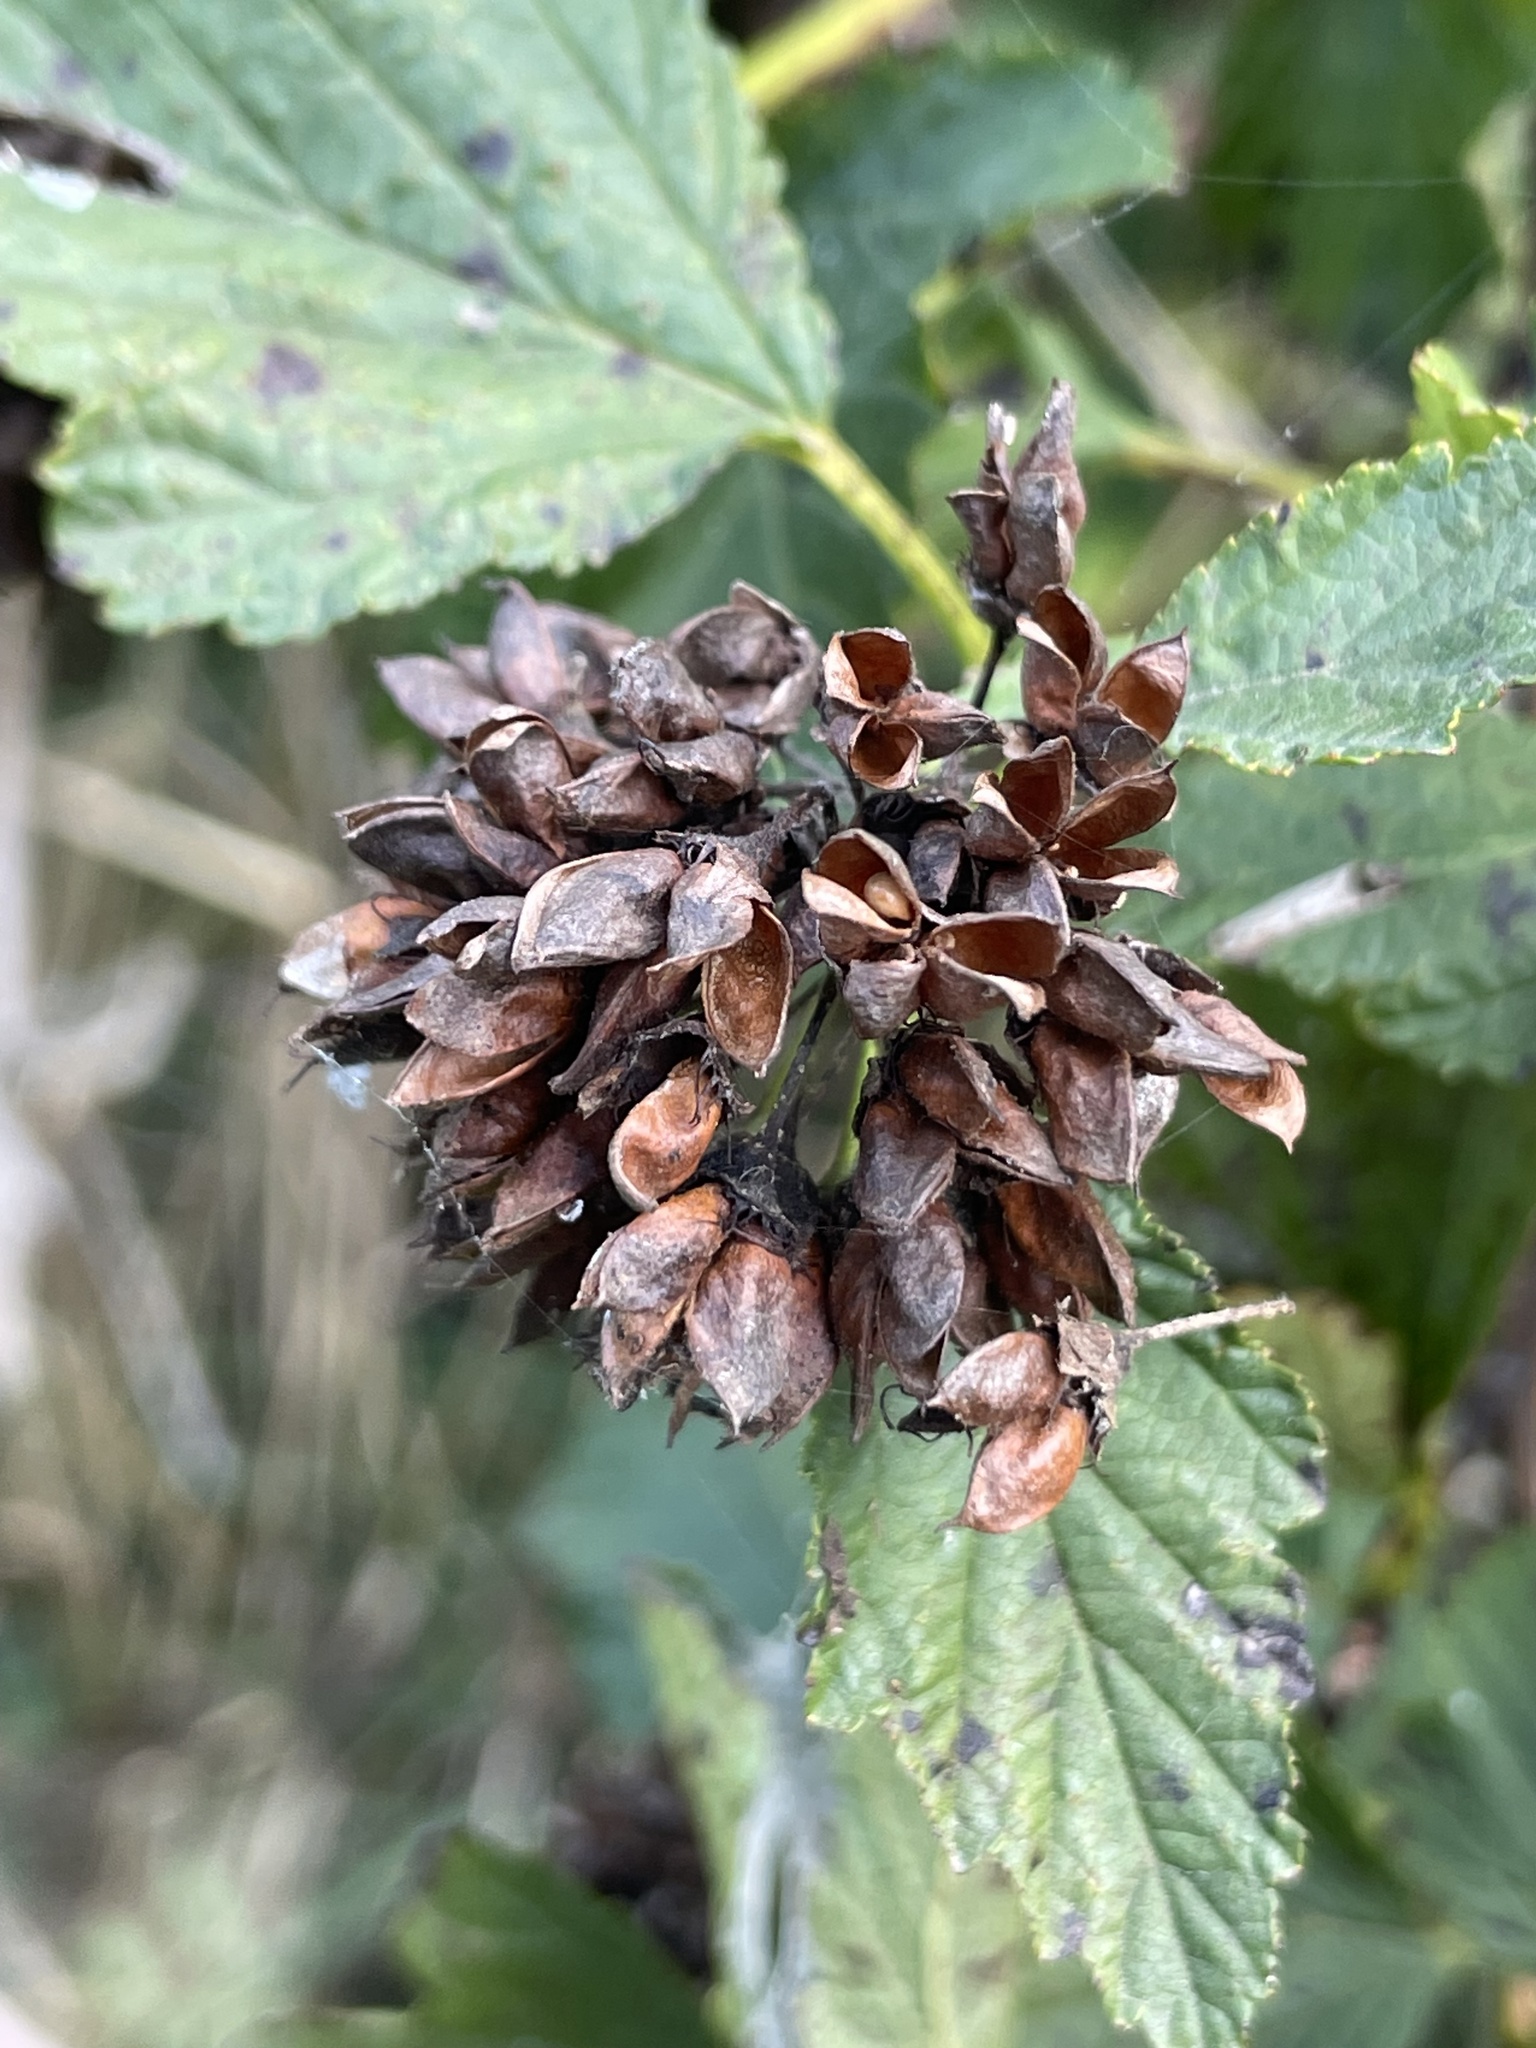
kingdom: Plantae
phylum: Tracheophyta
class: Magnoliopsida
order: Rosales
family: Rosaceae
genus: Physocarpus
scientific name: Physocarpus opulifolius
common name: Ninebark
